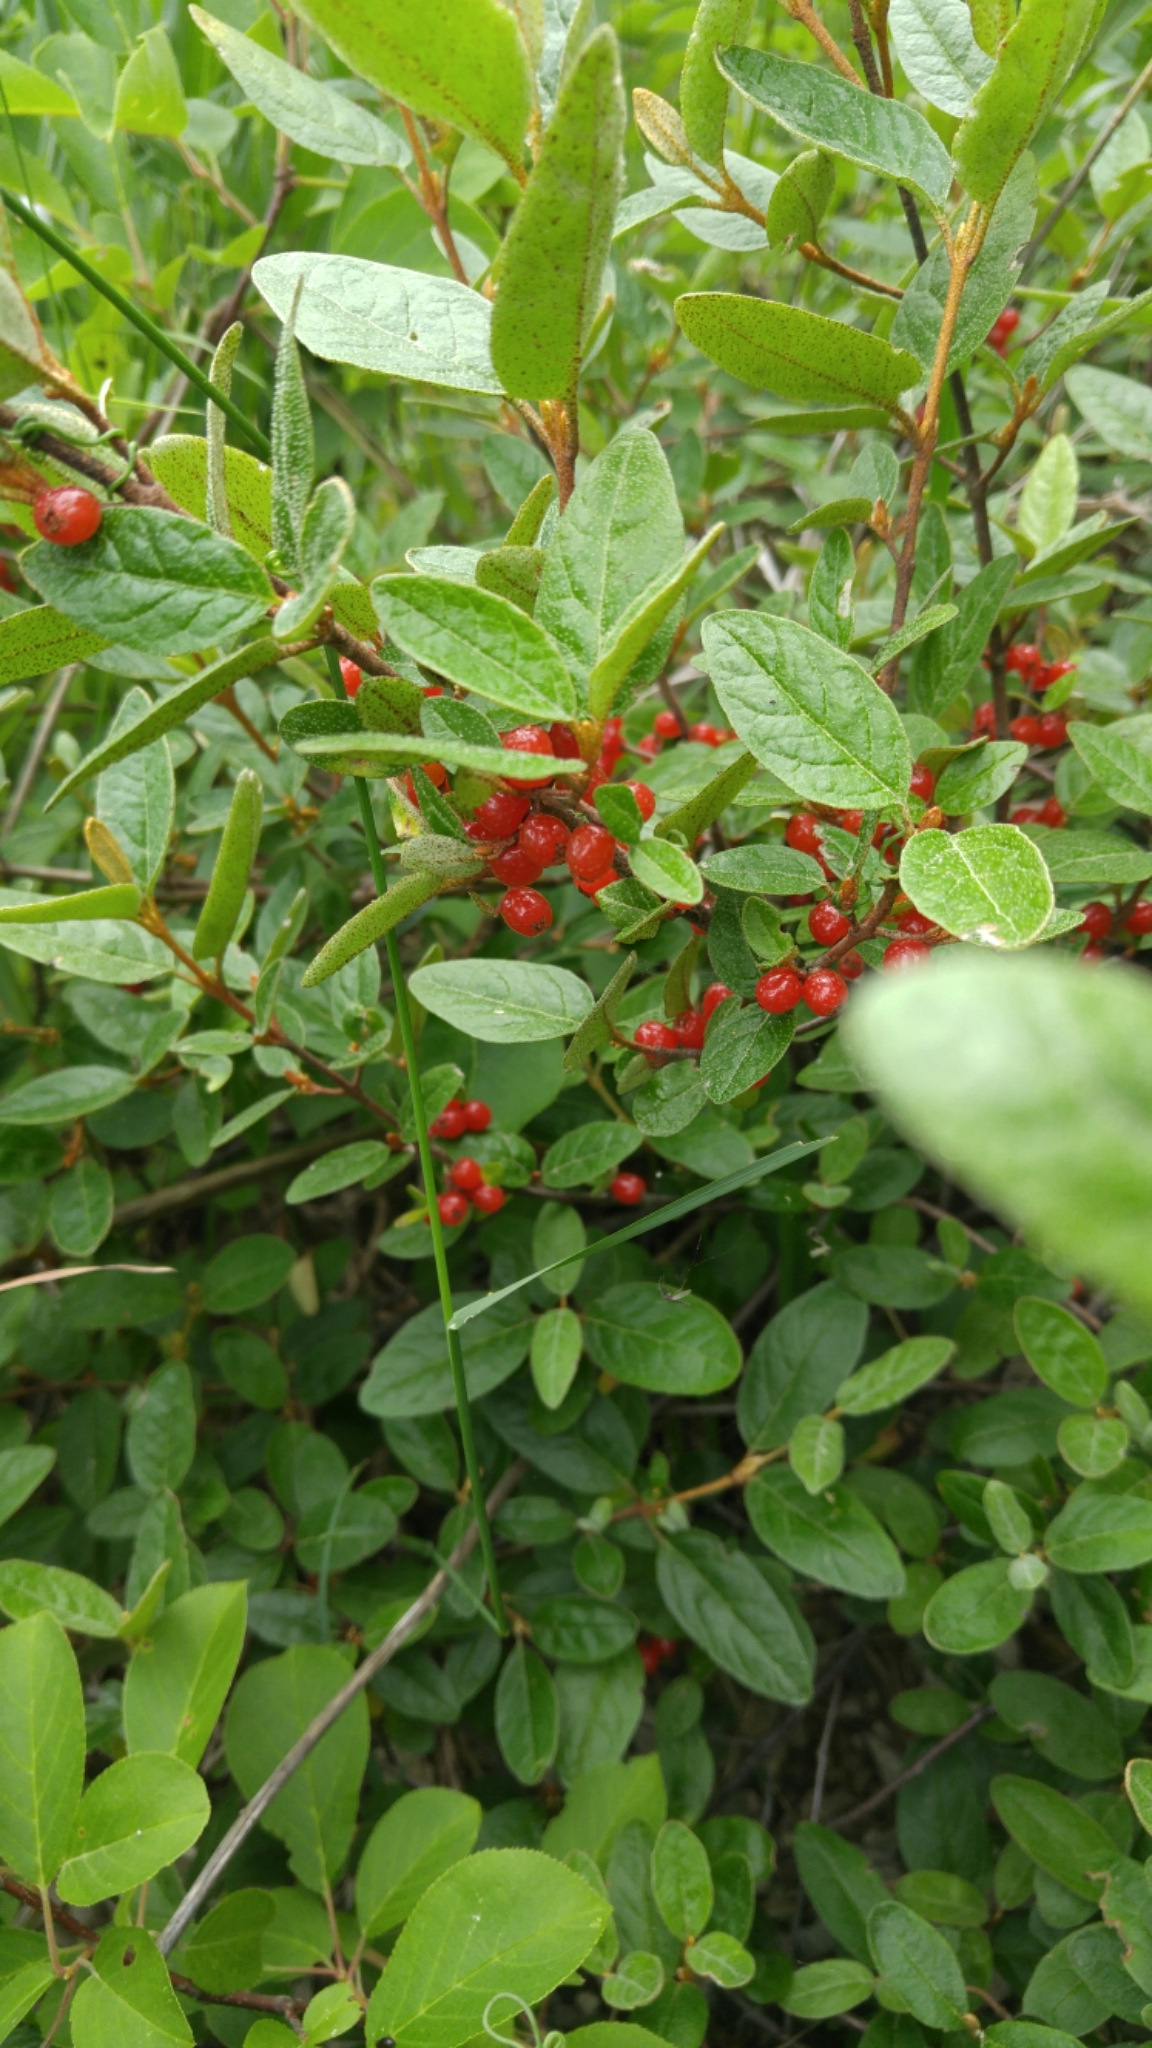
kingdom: Plantae
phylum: Tracheophyta
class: Magnoliopsida
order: Rosales
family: Elaeagnaceae
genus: Shepherdia
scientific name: Shepherdia canadensis
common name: Soapberry
